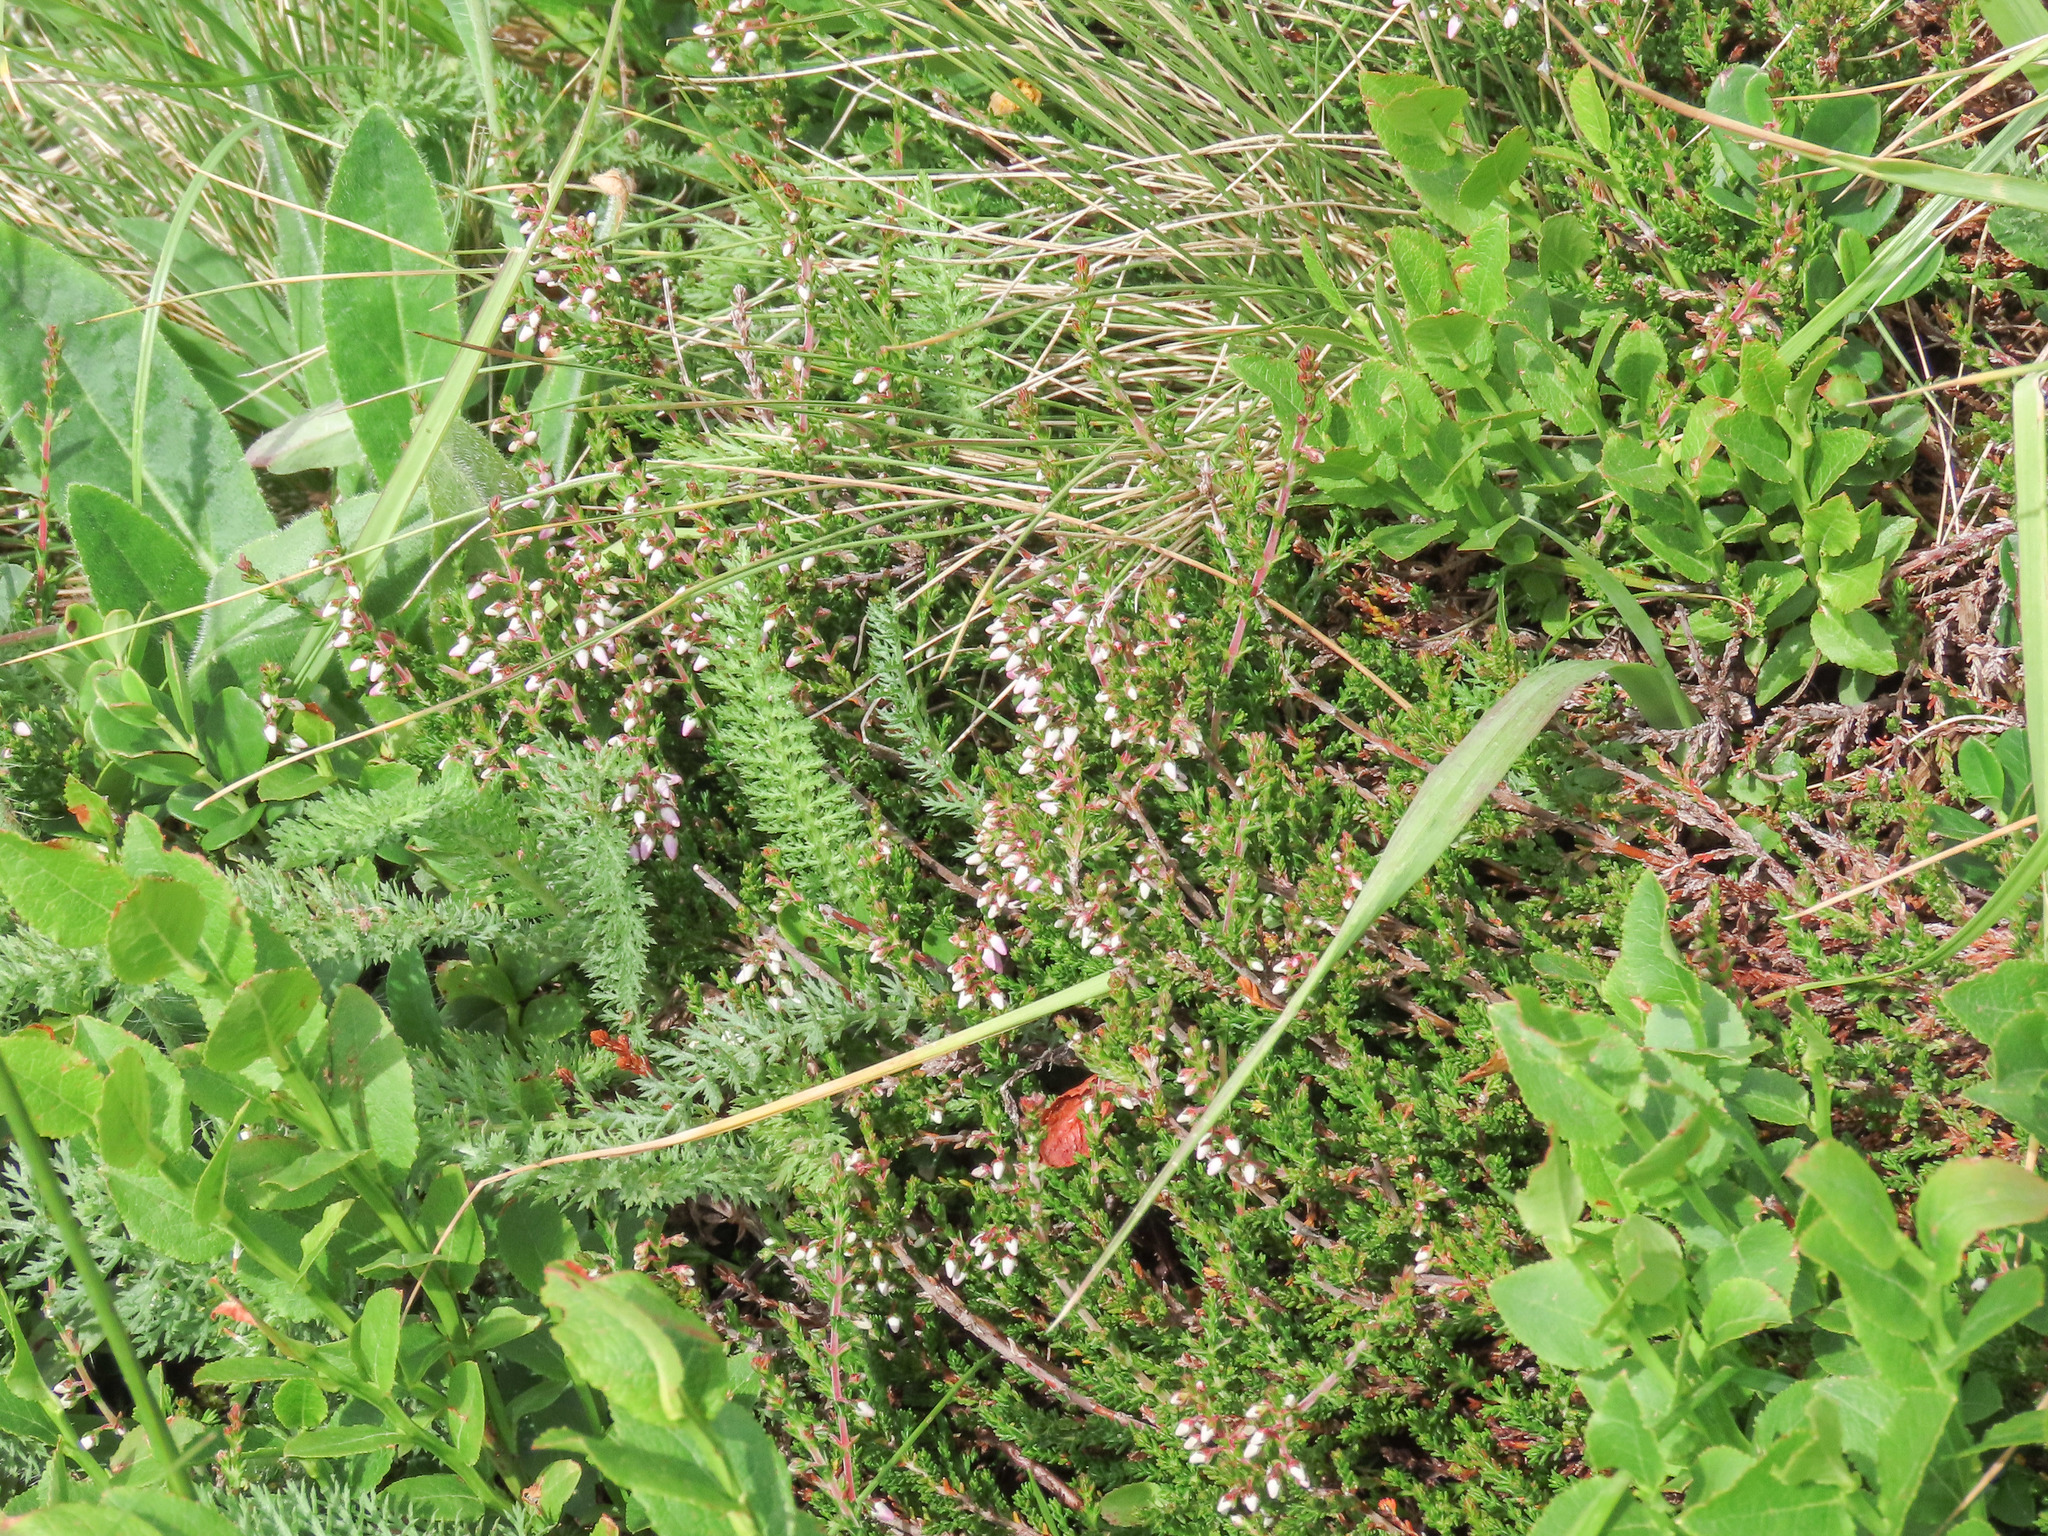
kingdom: Plantae
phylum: Tracheophyta
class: Magnoliopsida
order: Ericales
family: Ericaceae
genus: Calluna
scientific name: Calluna vulgaris
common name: Heather
